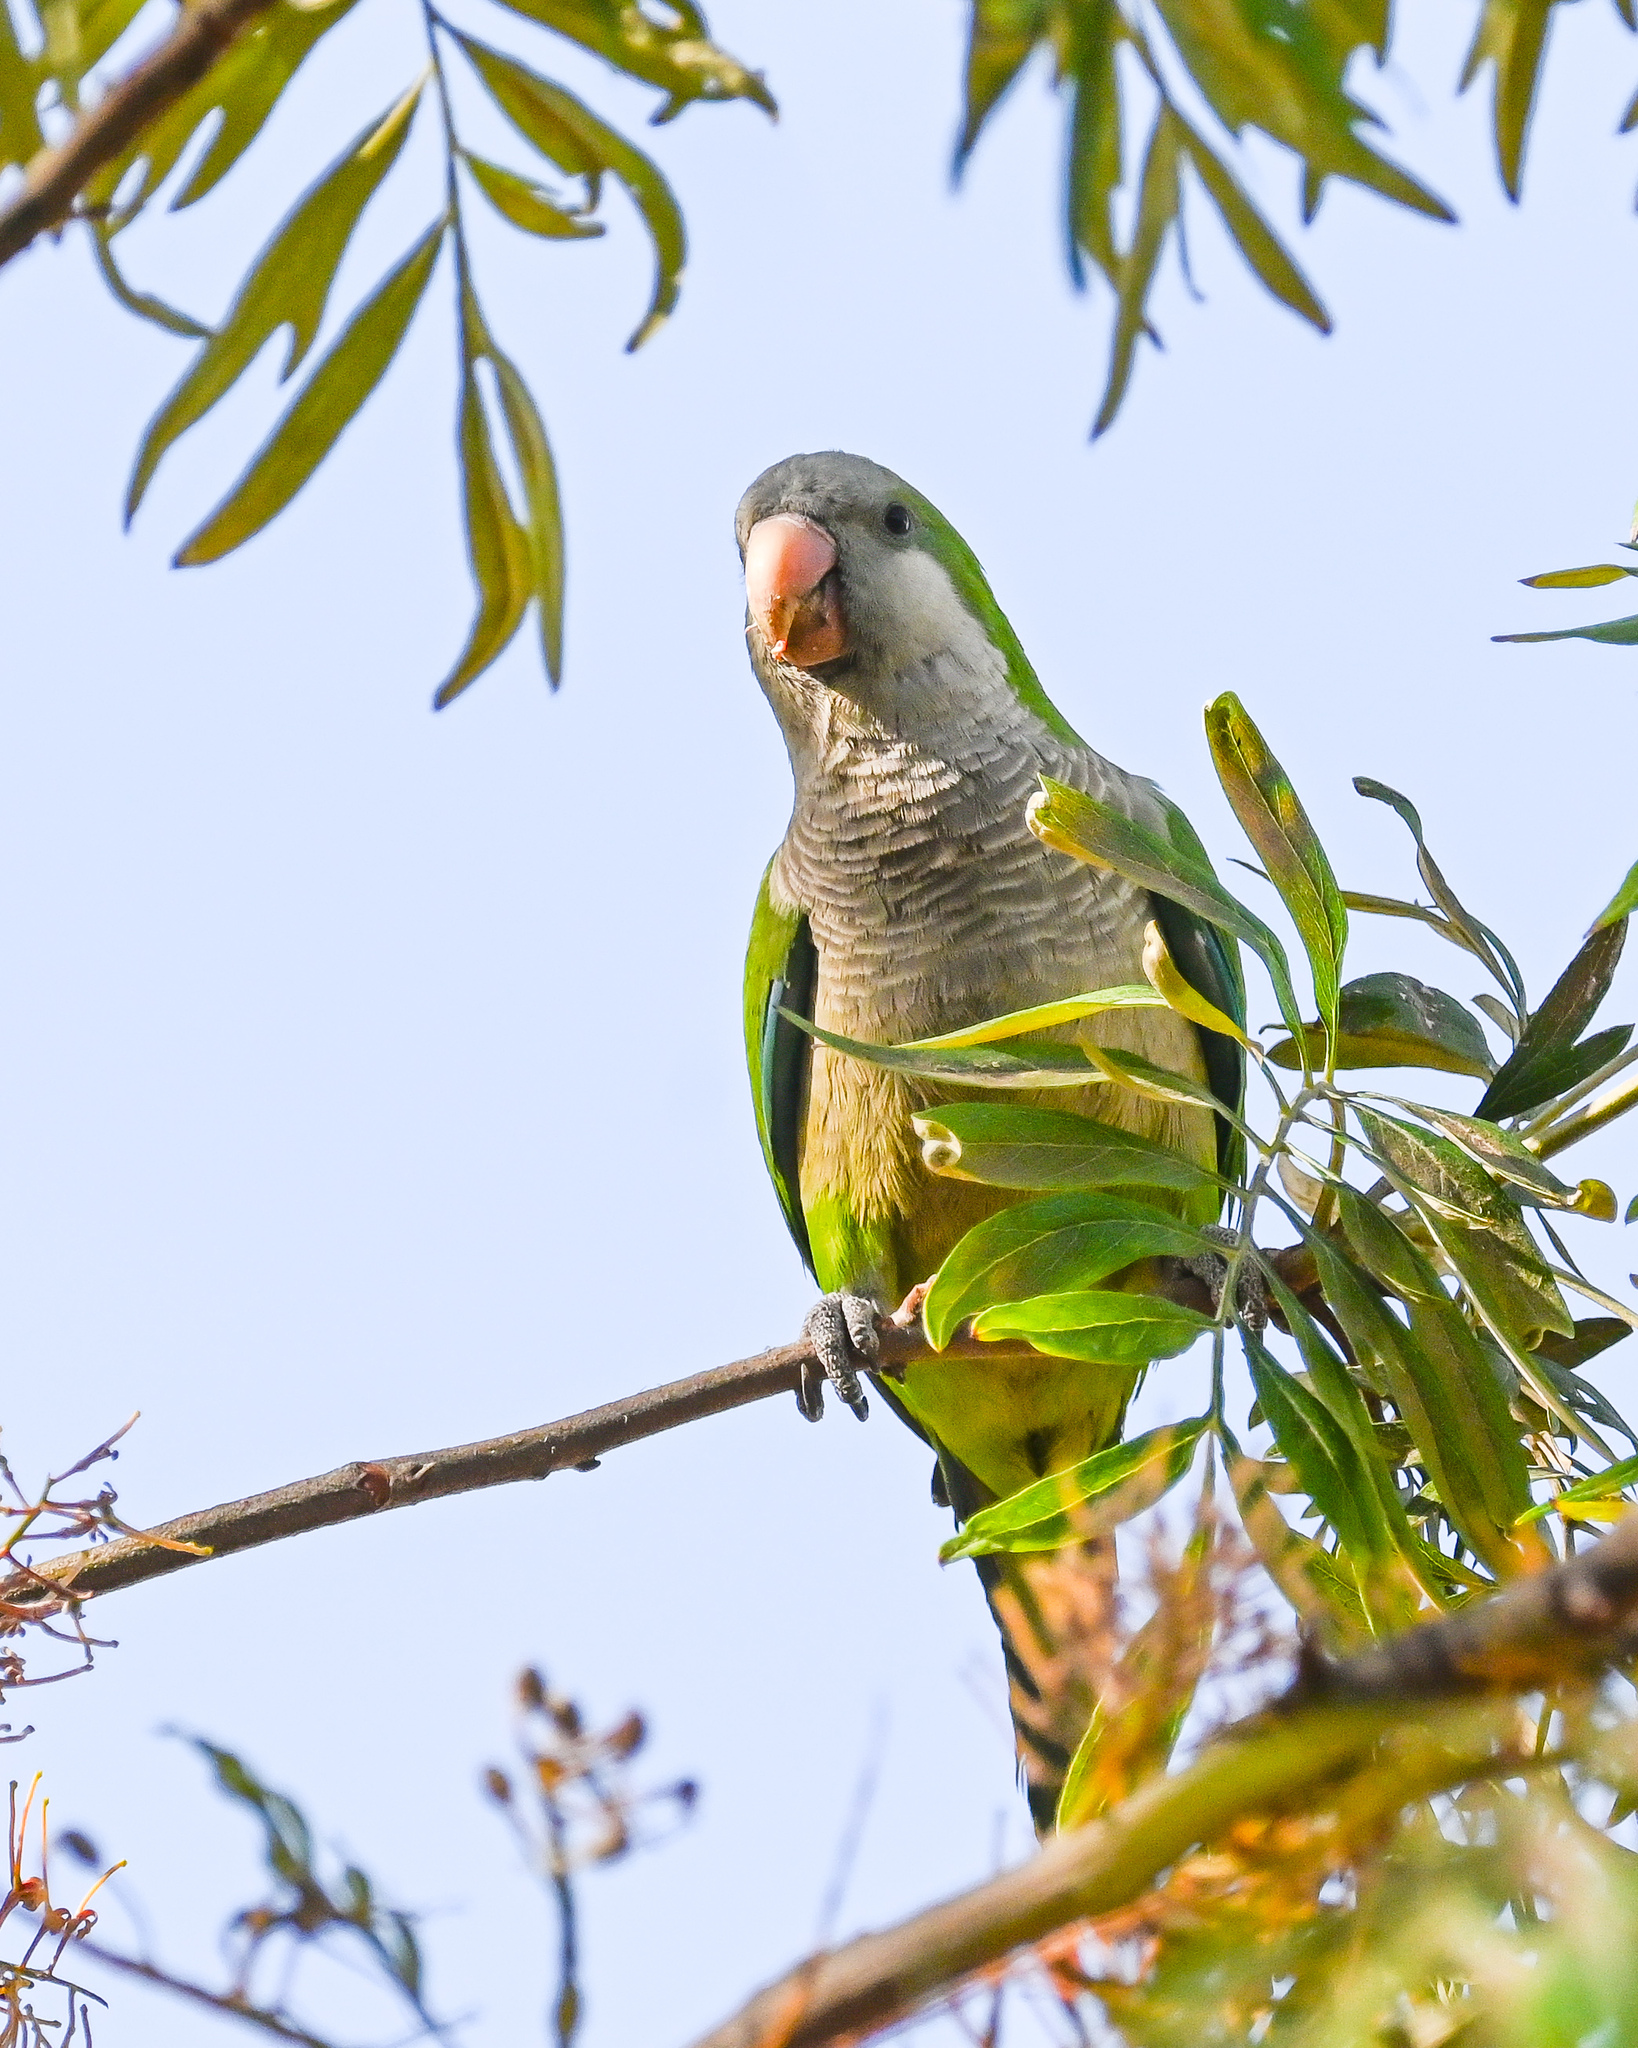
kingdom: Animalia
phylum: Chordata
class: Aves
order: Psittaciformes
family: Psittacidae
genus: Myiopsitta
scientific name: Myiopsitta monachus
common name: Monk parakeet
